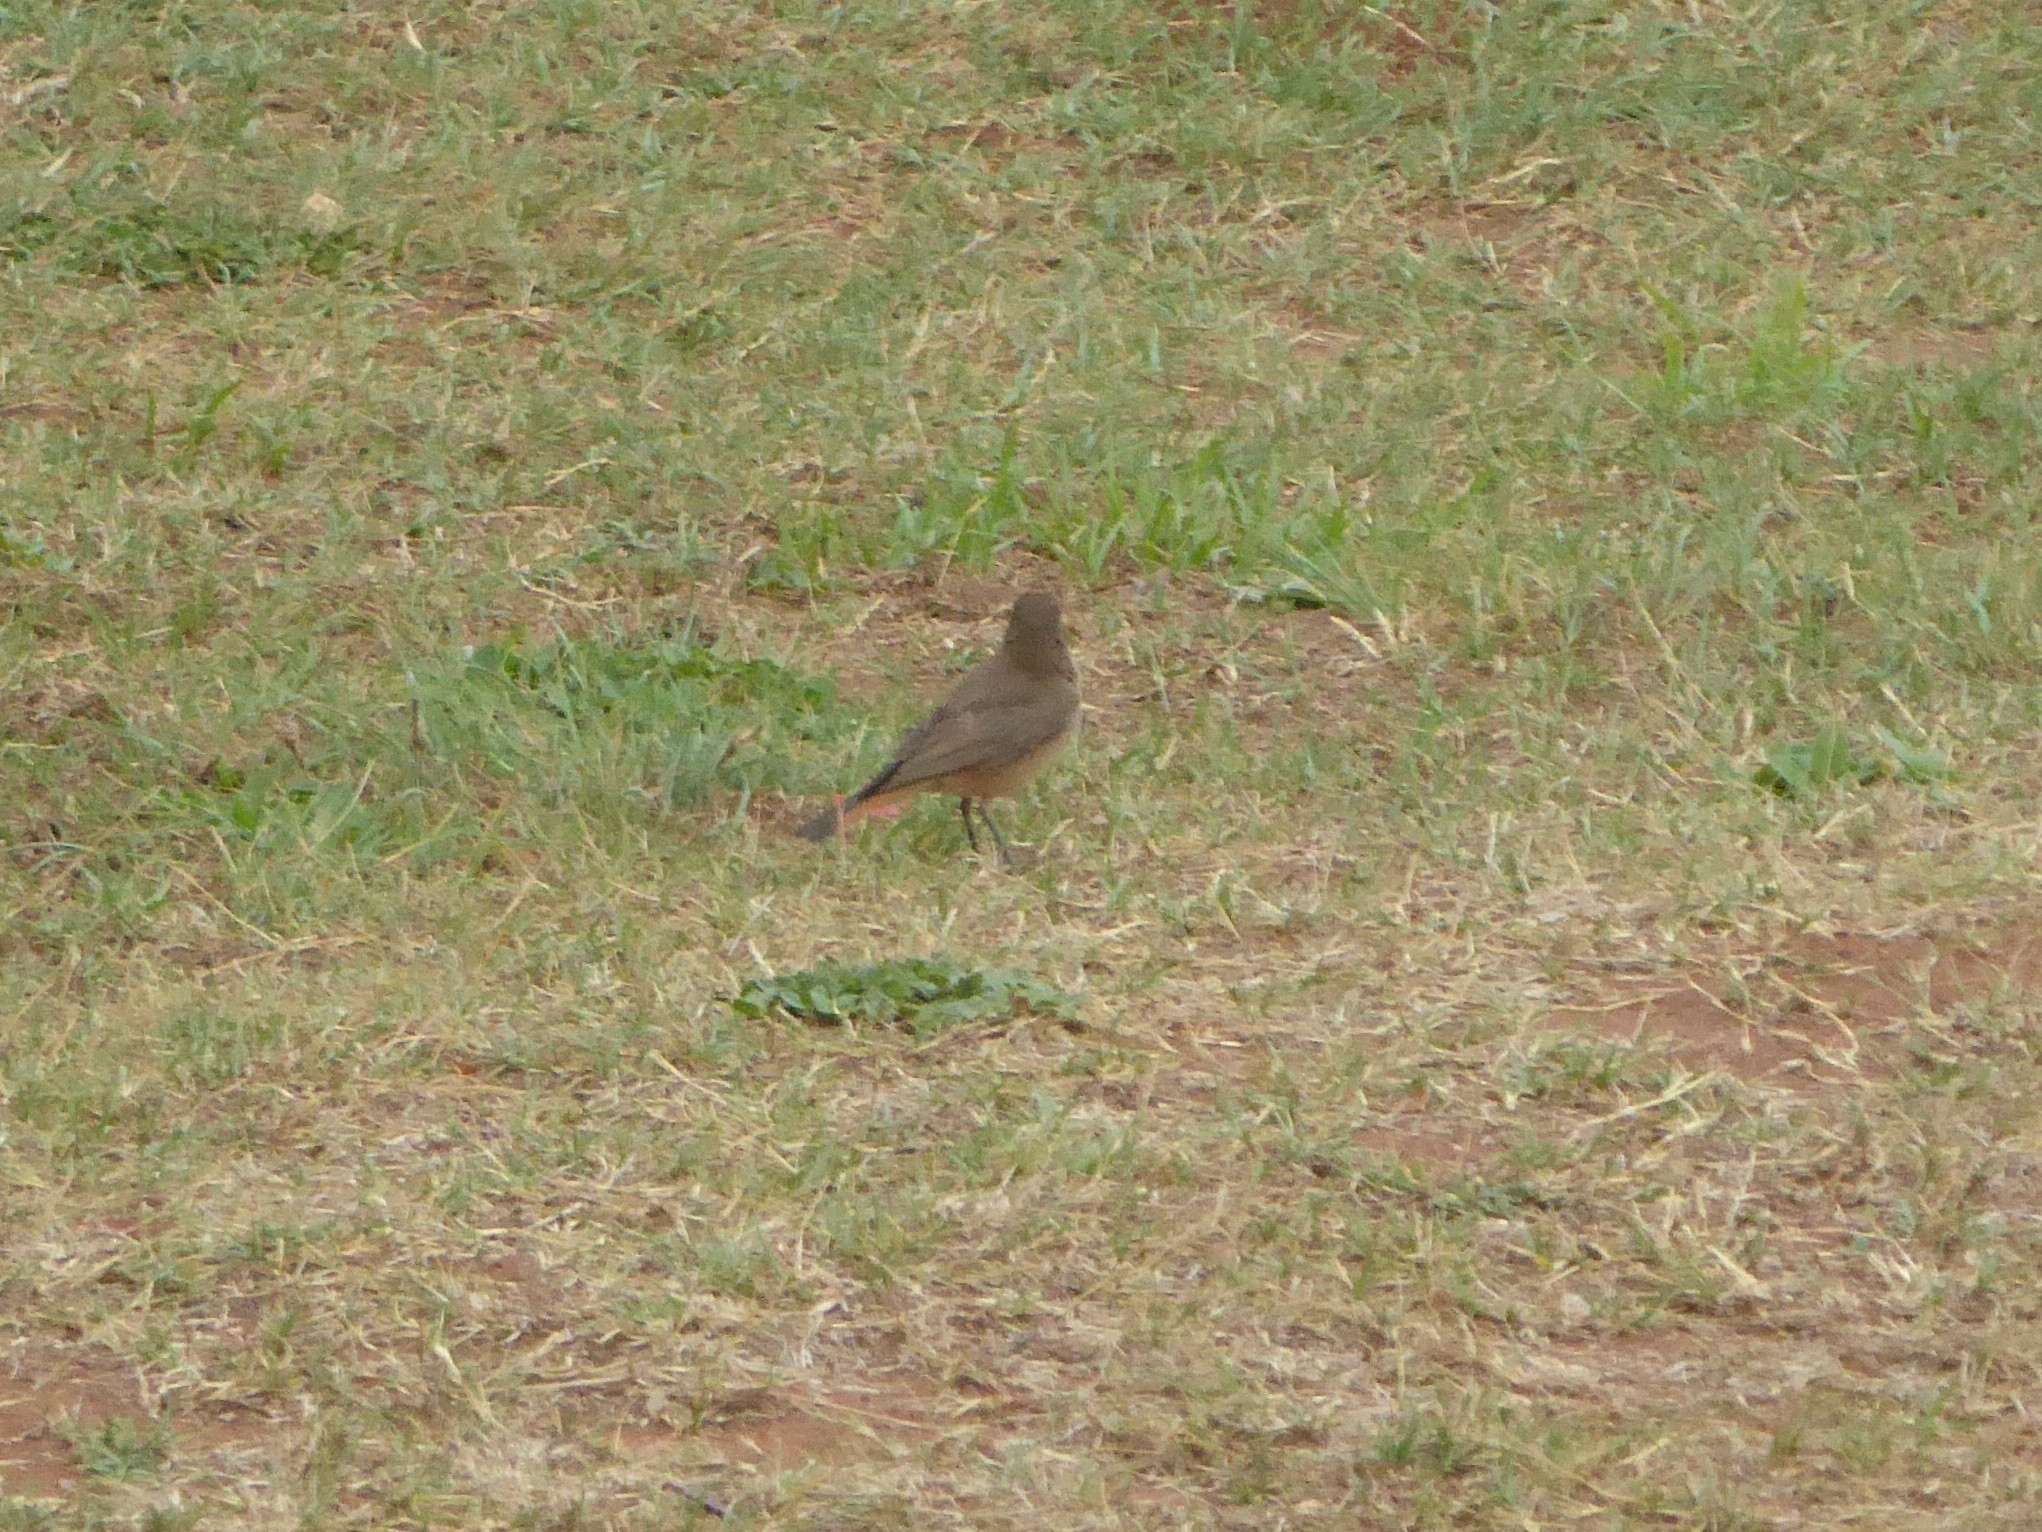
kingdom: Animalia
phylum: Chordata
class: Aves
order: Passeriformes
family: Muscicapidae
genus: Oenanthe
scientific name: Oenanthe familiaris
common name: Familiar chat
